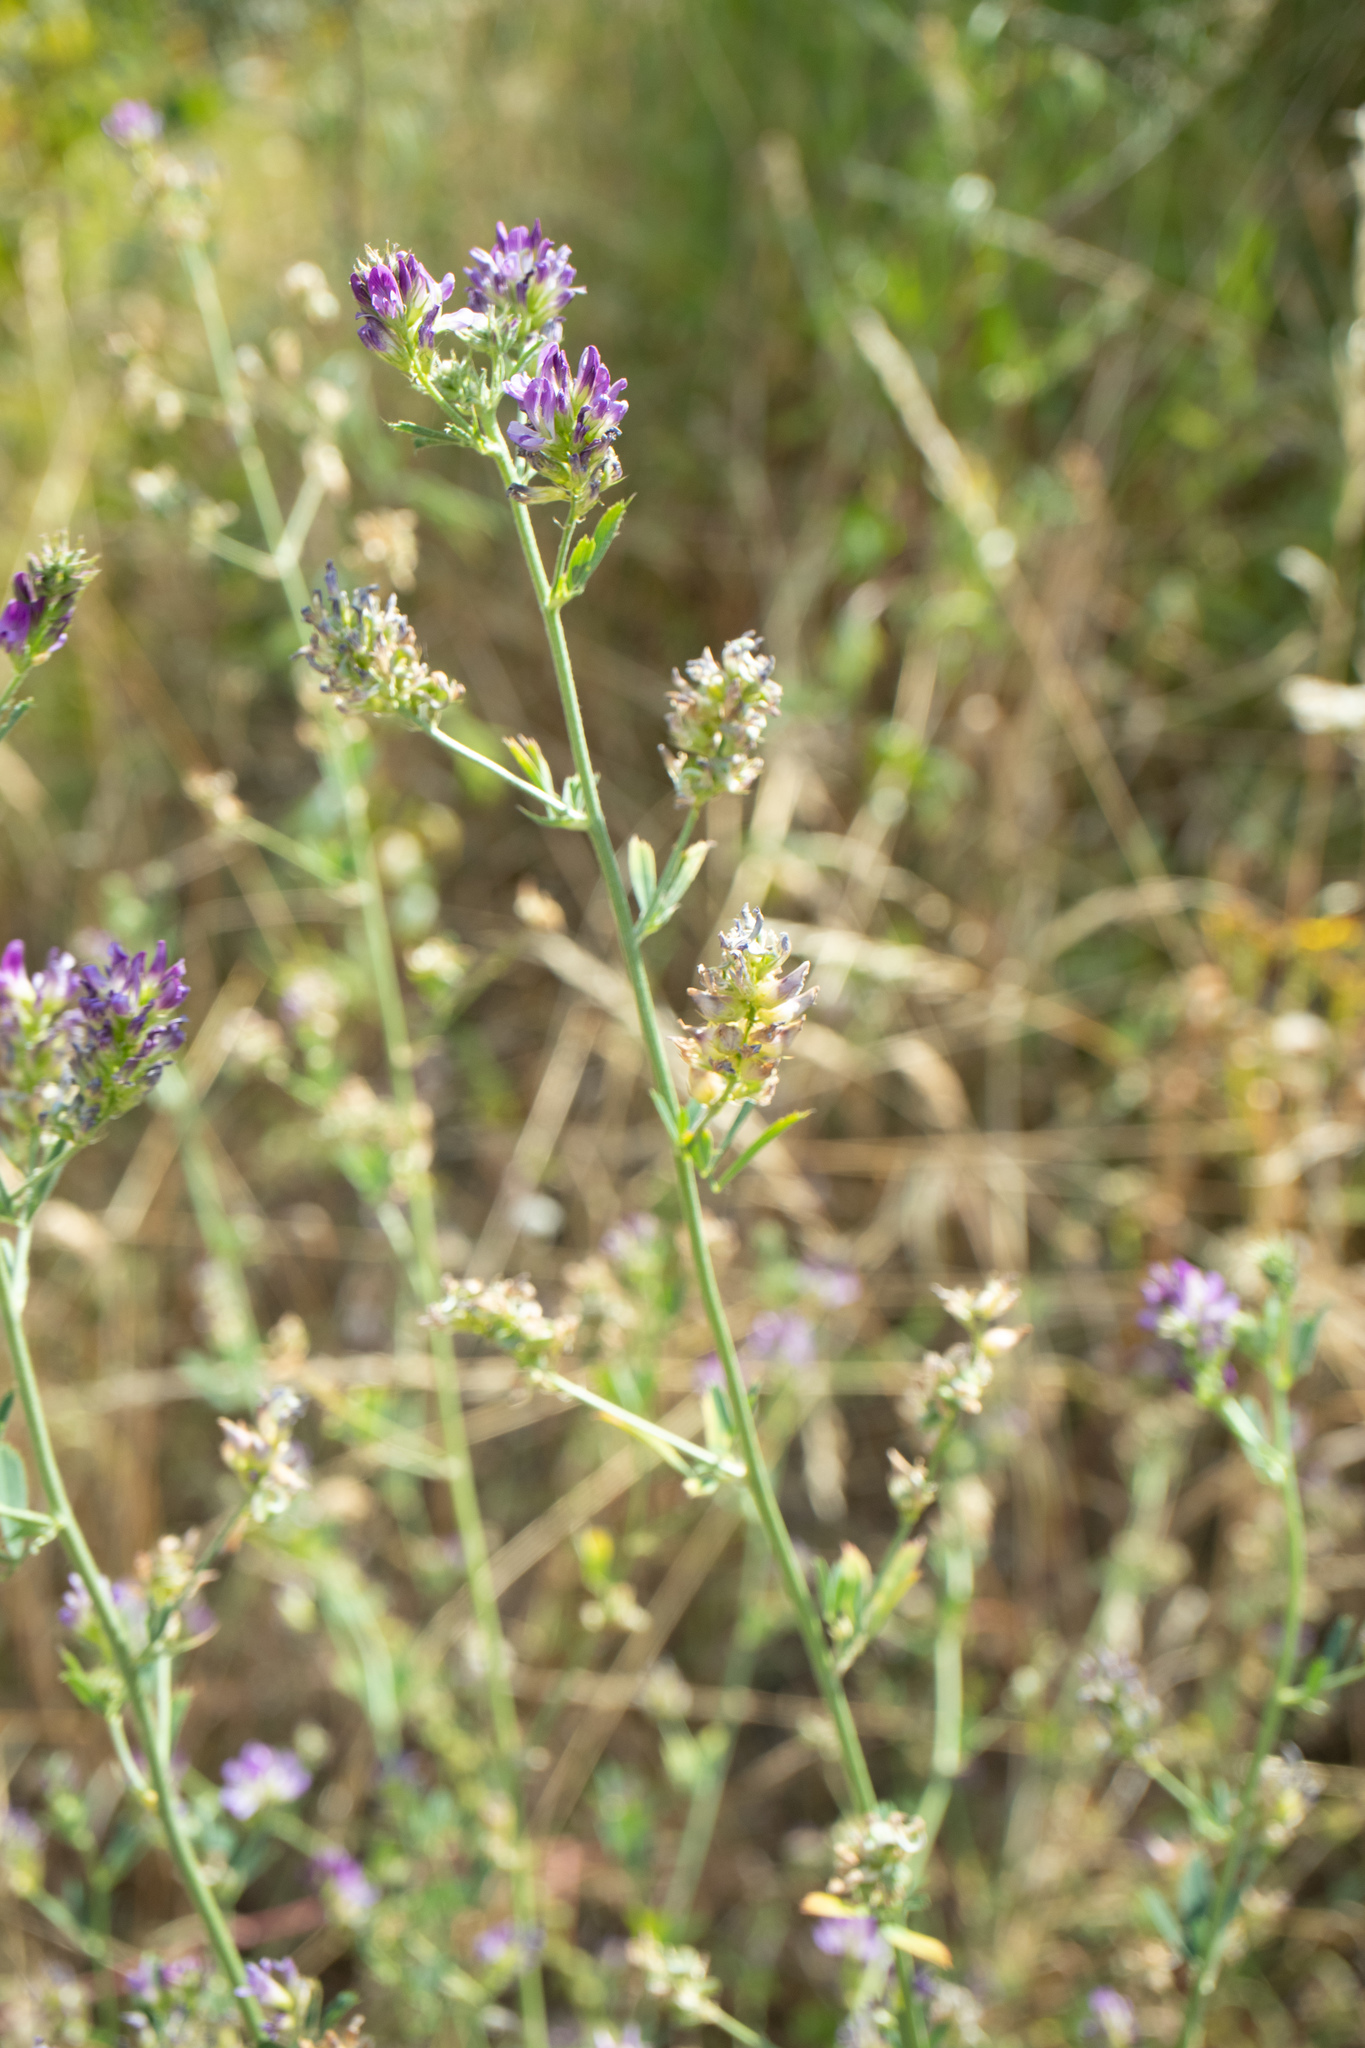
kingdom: Plantae
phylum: Tracheophyta
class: Magnoliopsida
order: Fabales
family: Fabaceae
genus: Medicago
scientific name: Medicago sativa
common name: Alfalfa
